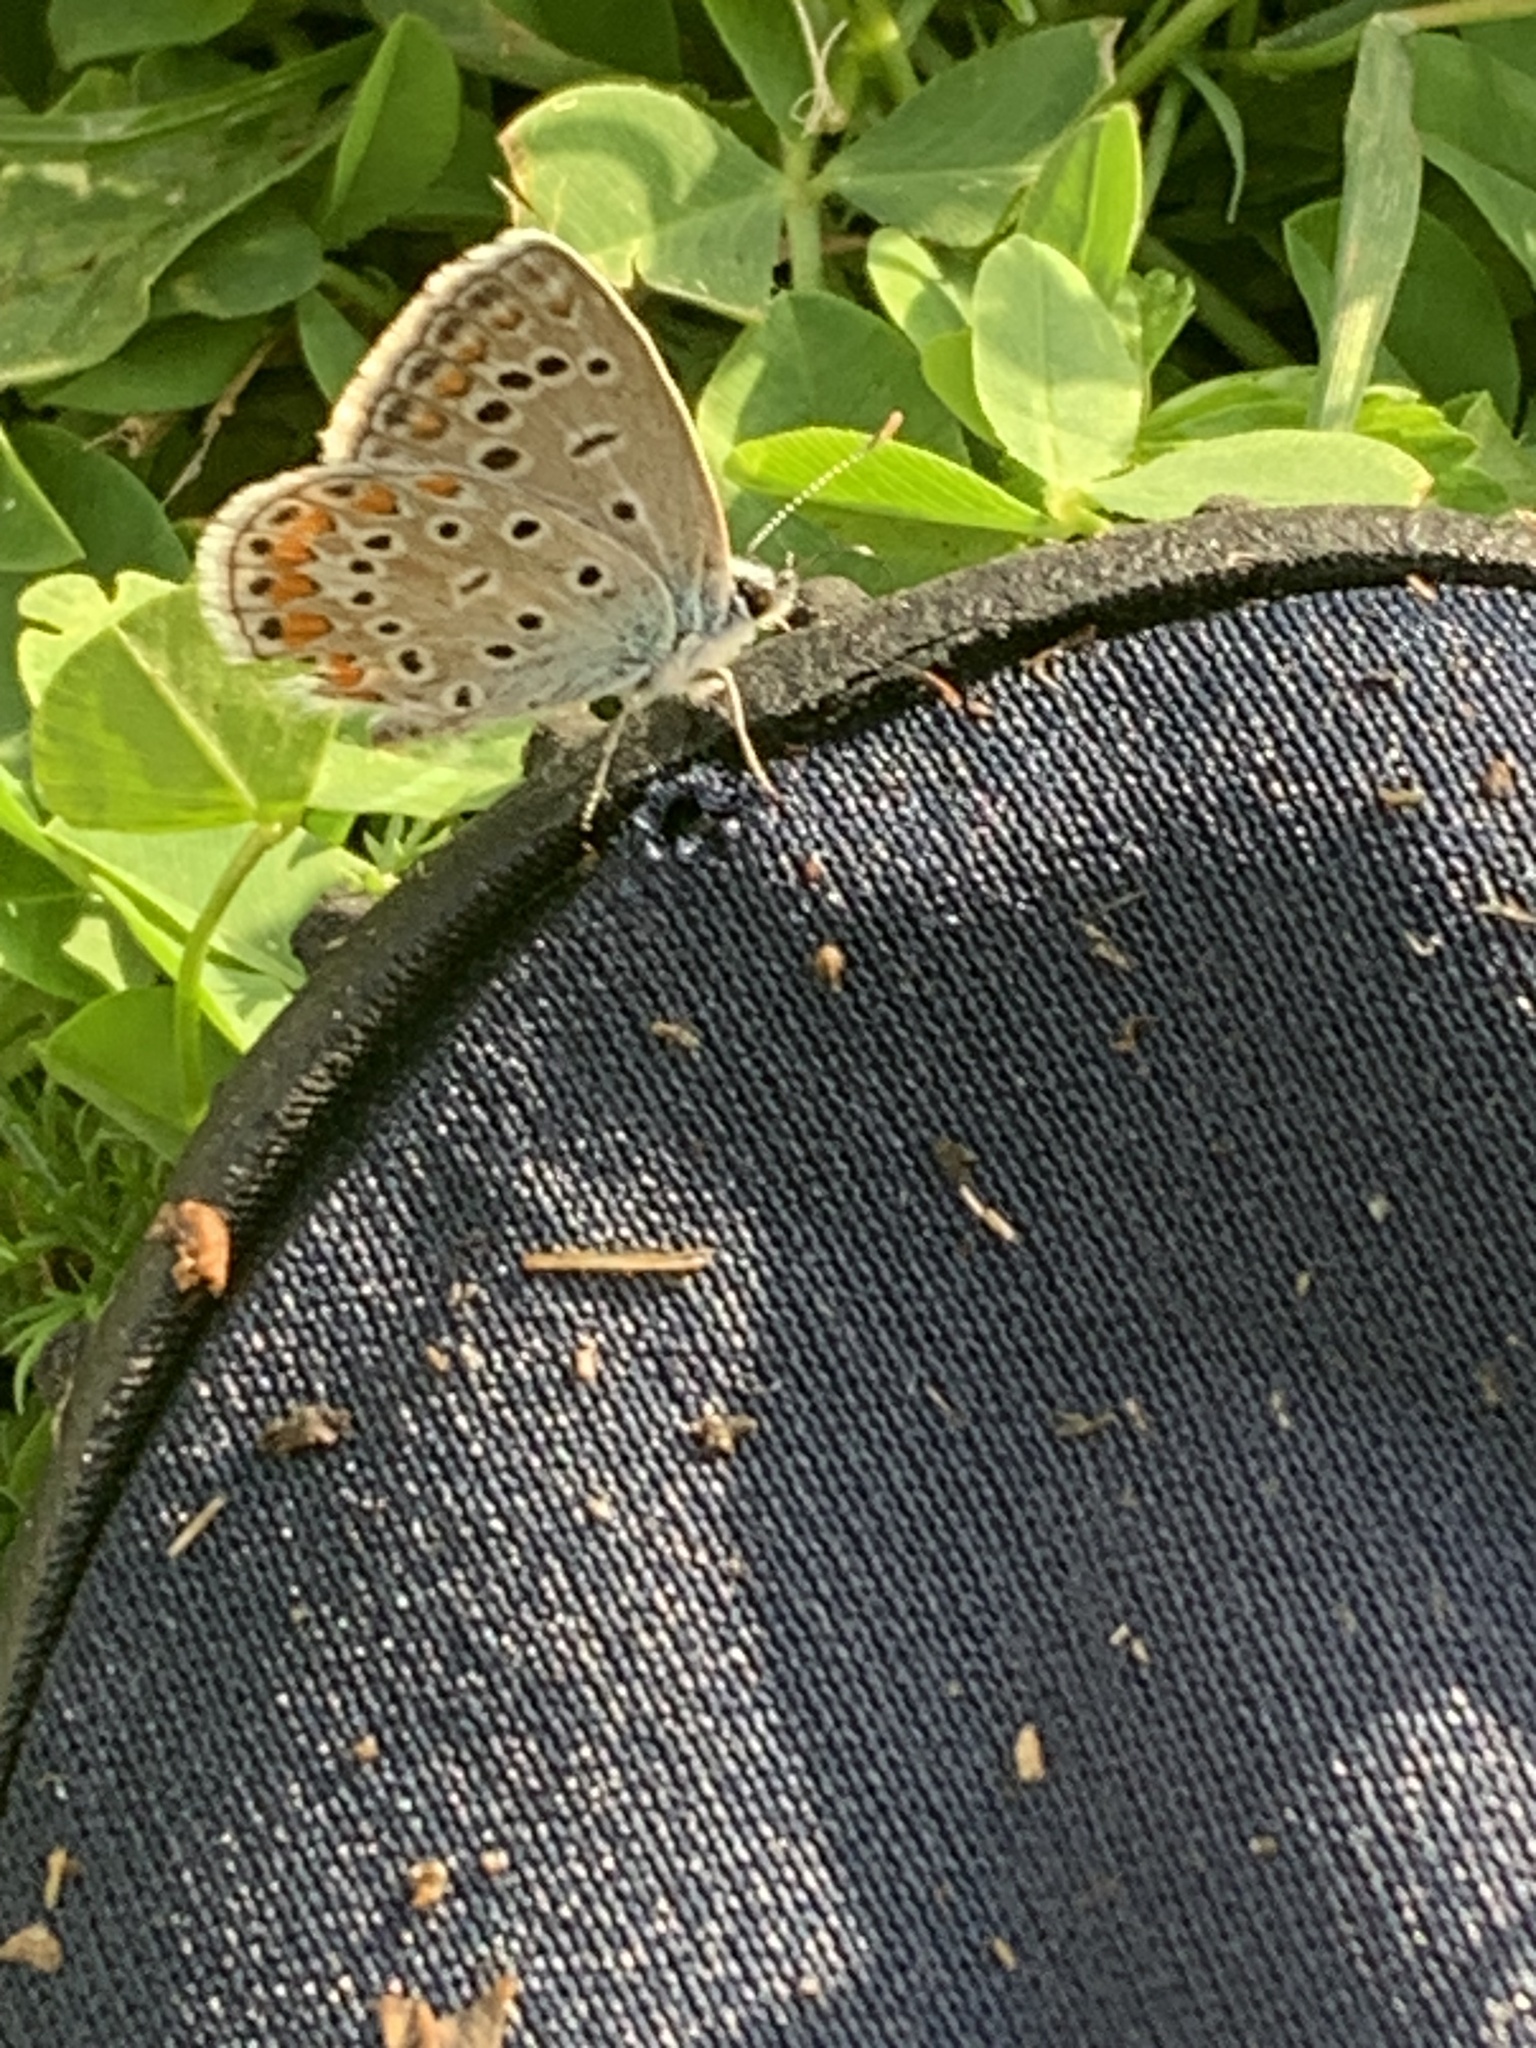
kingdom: Animalia
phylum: Arthropoda
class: Insecta
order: Lepidoptera
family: Lycaenidae
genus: Polyommatus
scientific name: Polyommatus icarus
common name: Common blue
